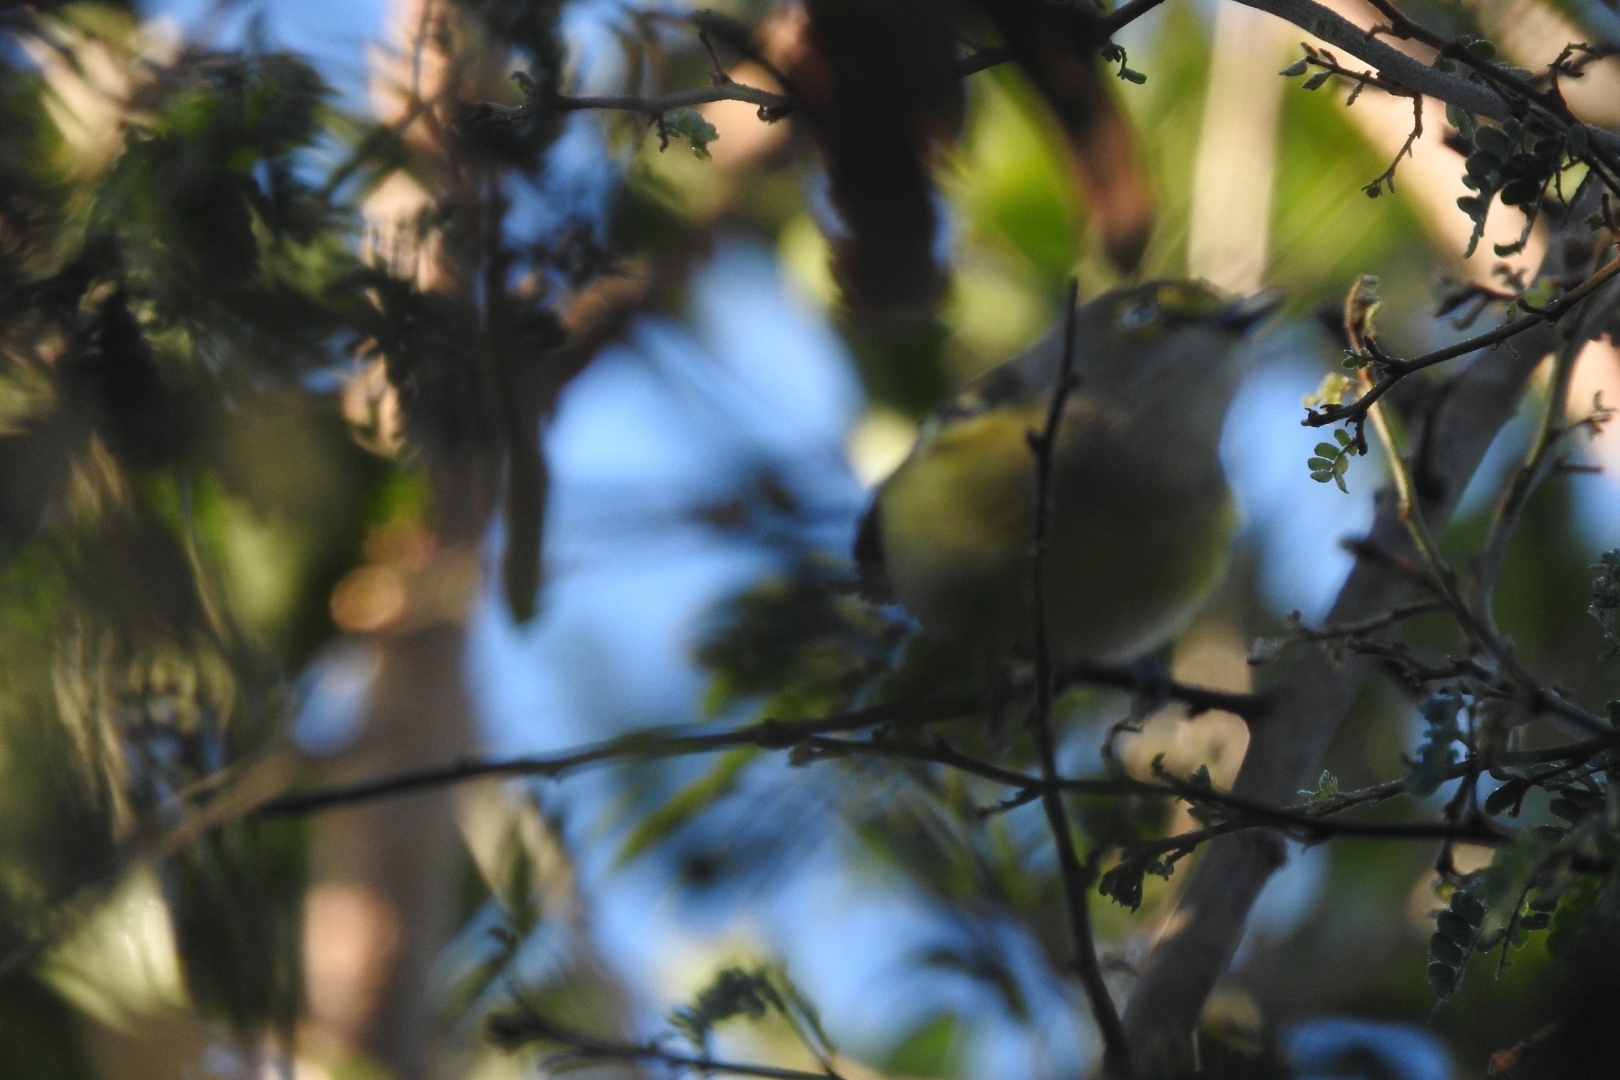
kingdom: Animalia
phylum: Chordata
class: Aves
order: Passeriformes
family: Vireonidae
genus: Vireo
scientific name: Vireo griseus
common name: White-eyed vireo
